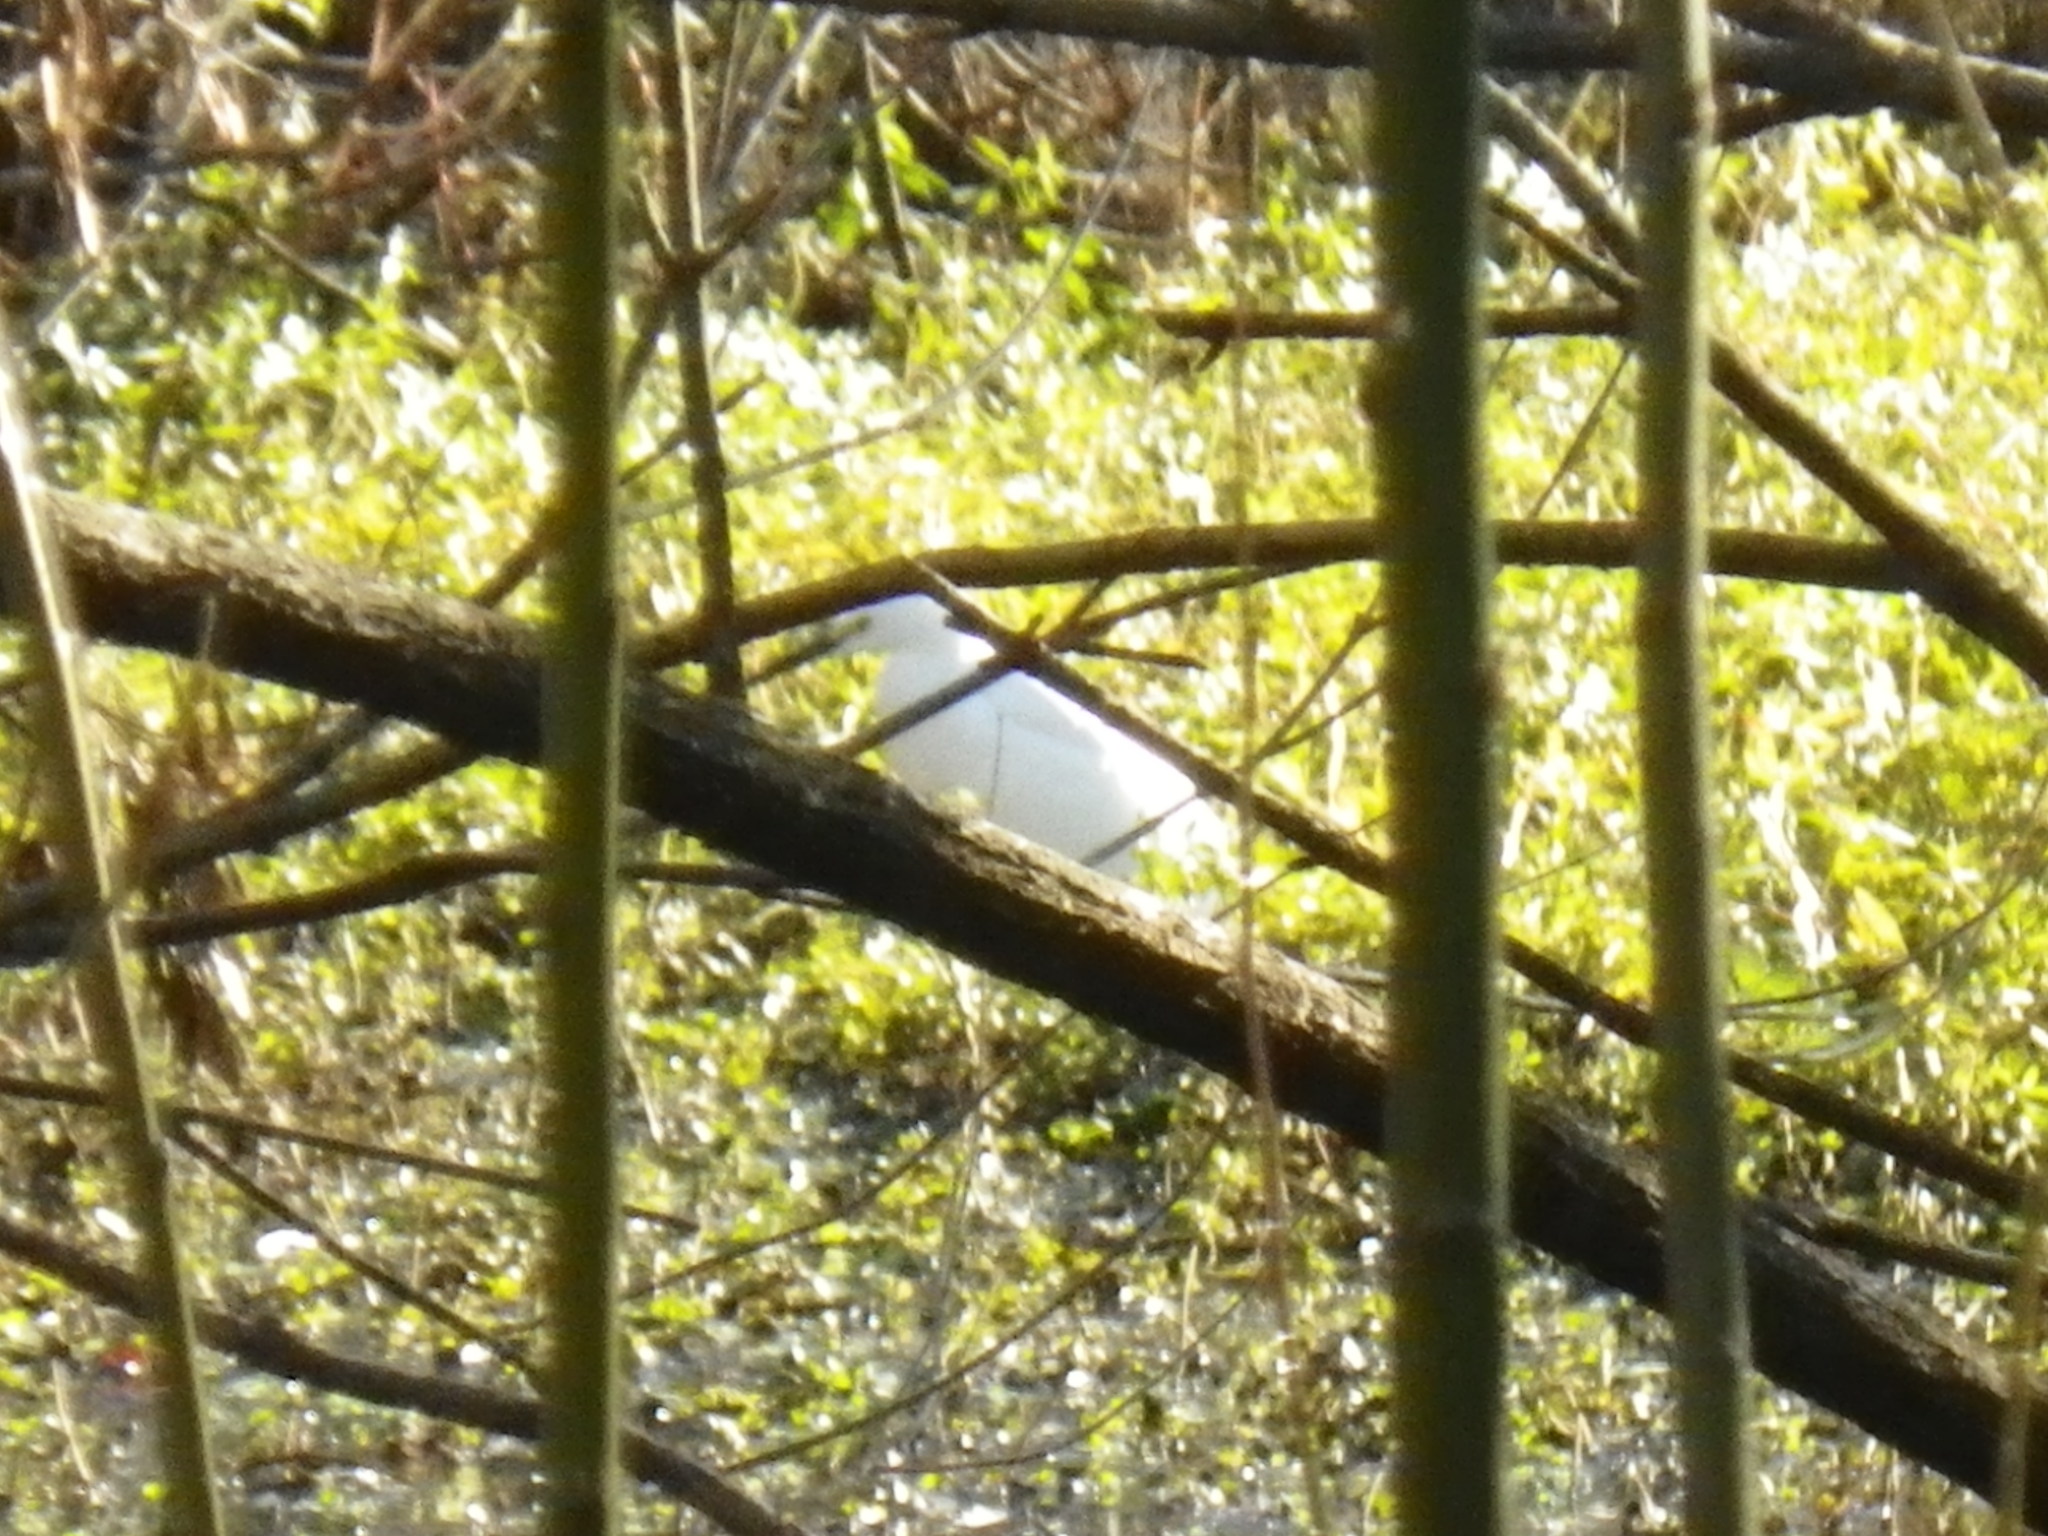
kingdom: Animalia
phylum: Chordata
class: Aves
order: Pelecaniformes
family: Ardeidae
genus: Egretta
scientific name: Egretta thula
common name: Snowy egret
